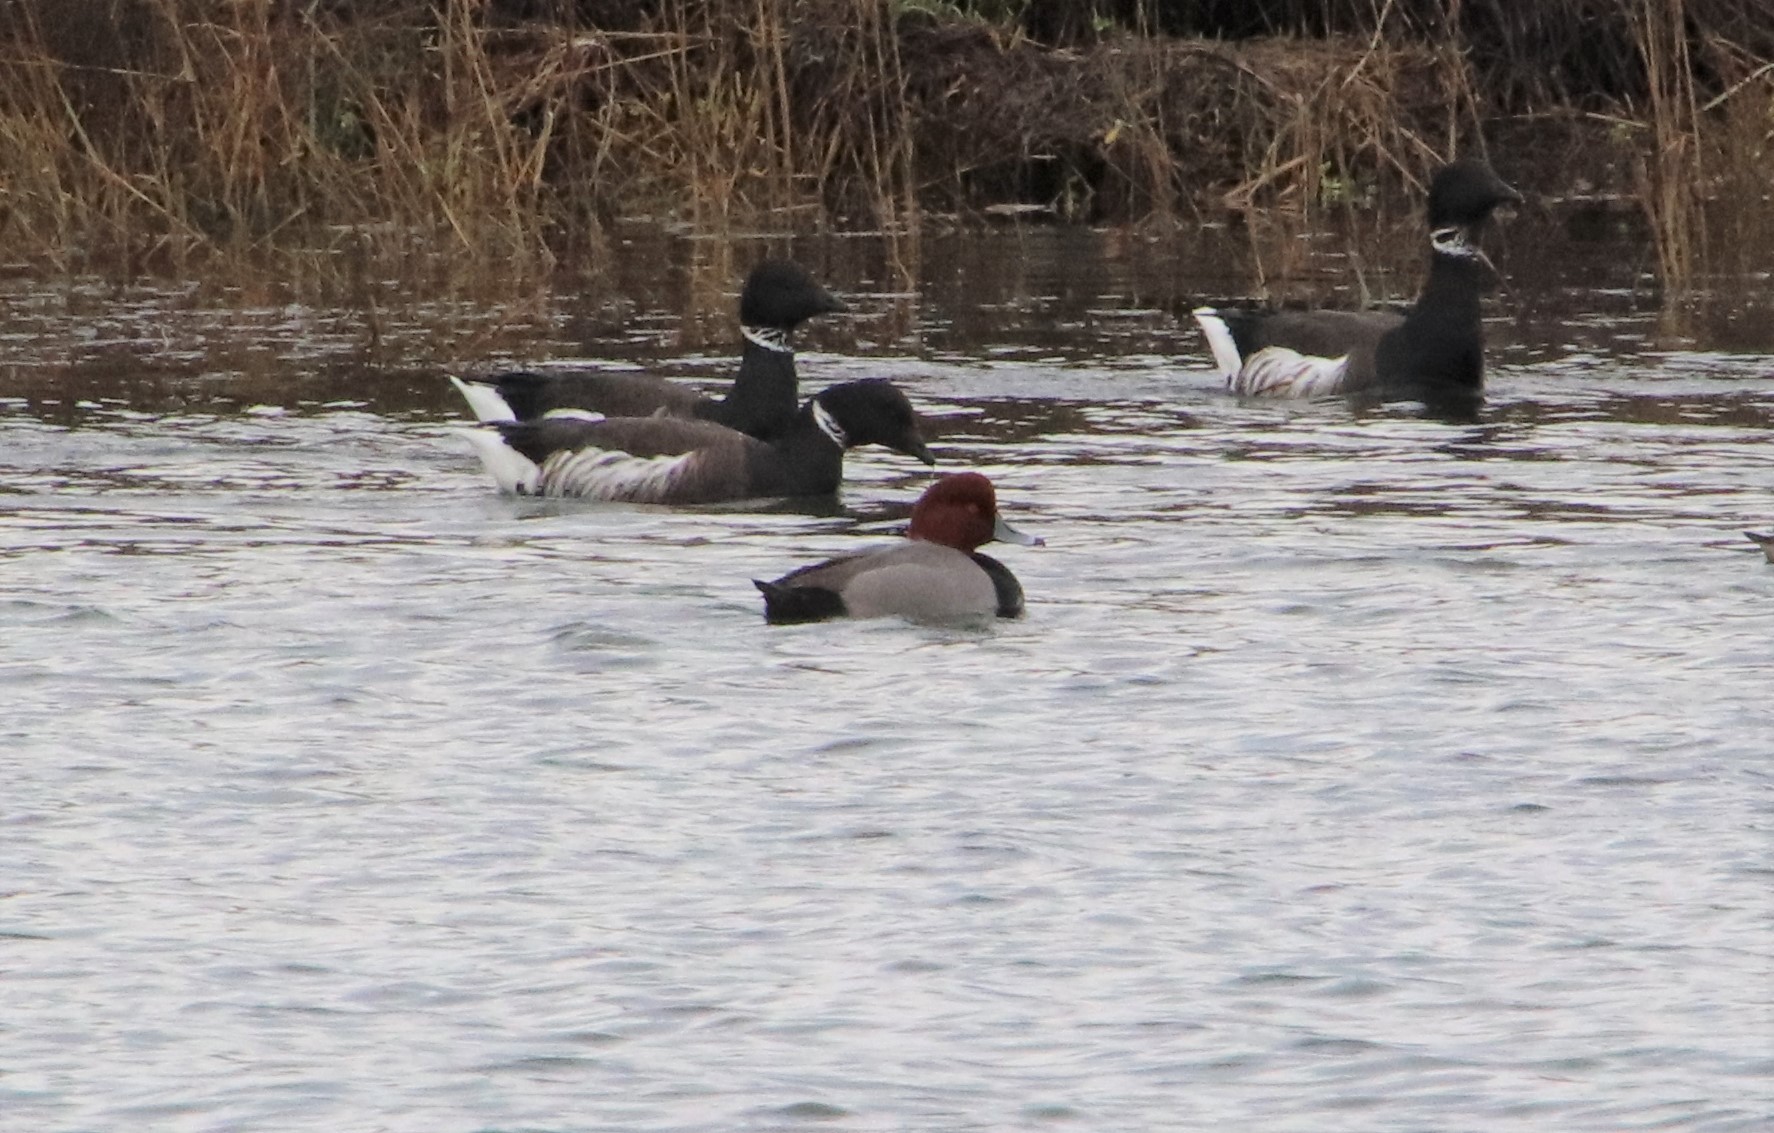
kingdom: Animalia
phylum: Chordata
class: Aves
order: Anseriformes
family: Anatidae
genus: Aythya
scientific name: Aythya americana
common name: Redhead
